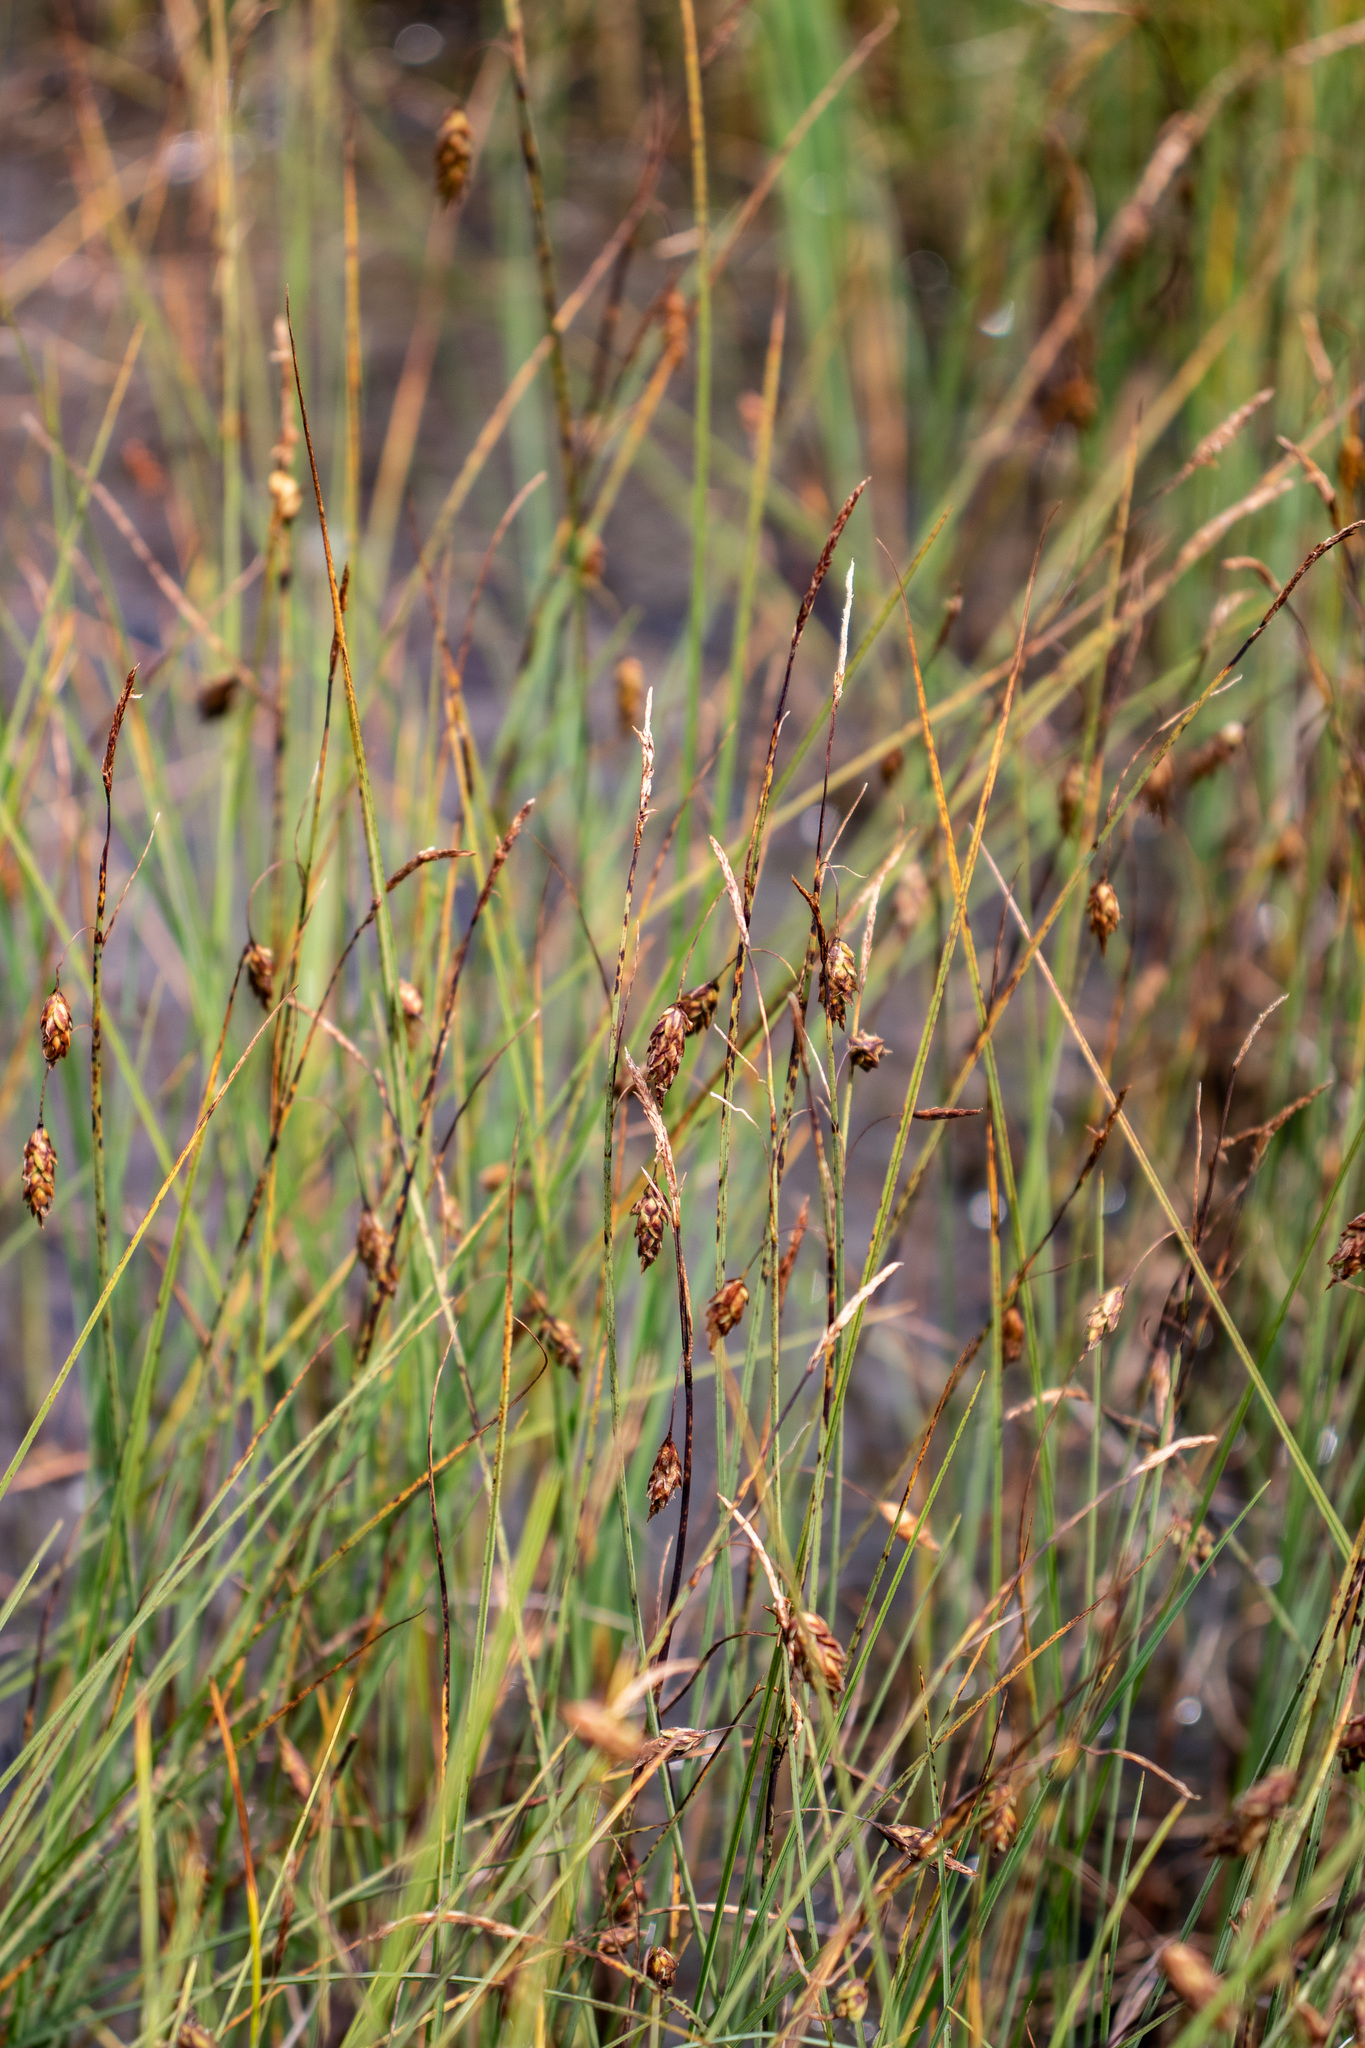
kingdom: Plantae
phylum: Tracheophyta
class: Liliopsida
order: Poales
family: Cyperaceae
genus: Carex
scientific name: Carex limosa
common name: Bog sedge
